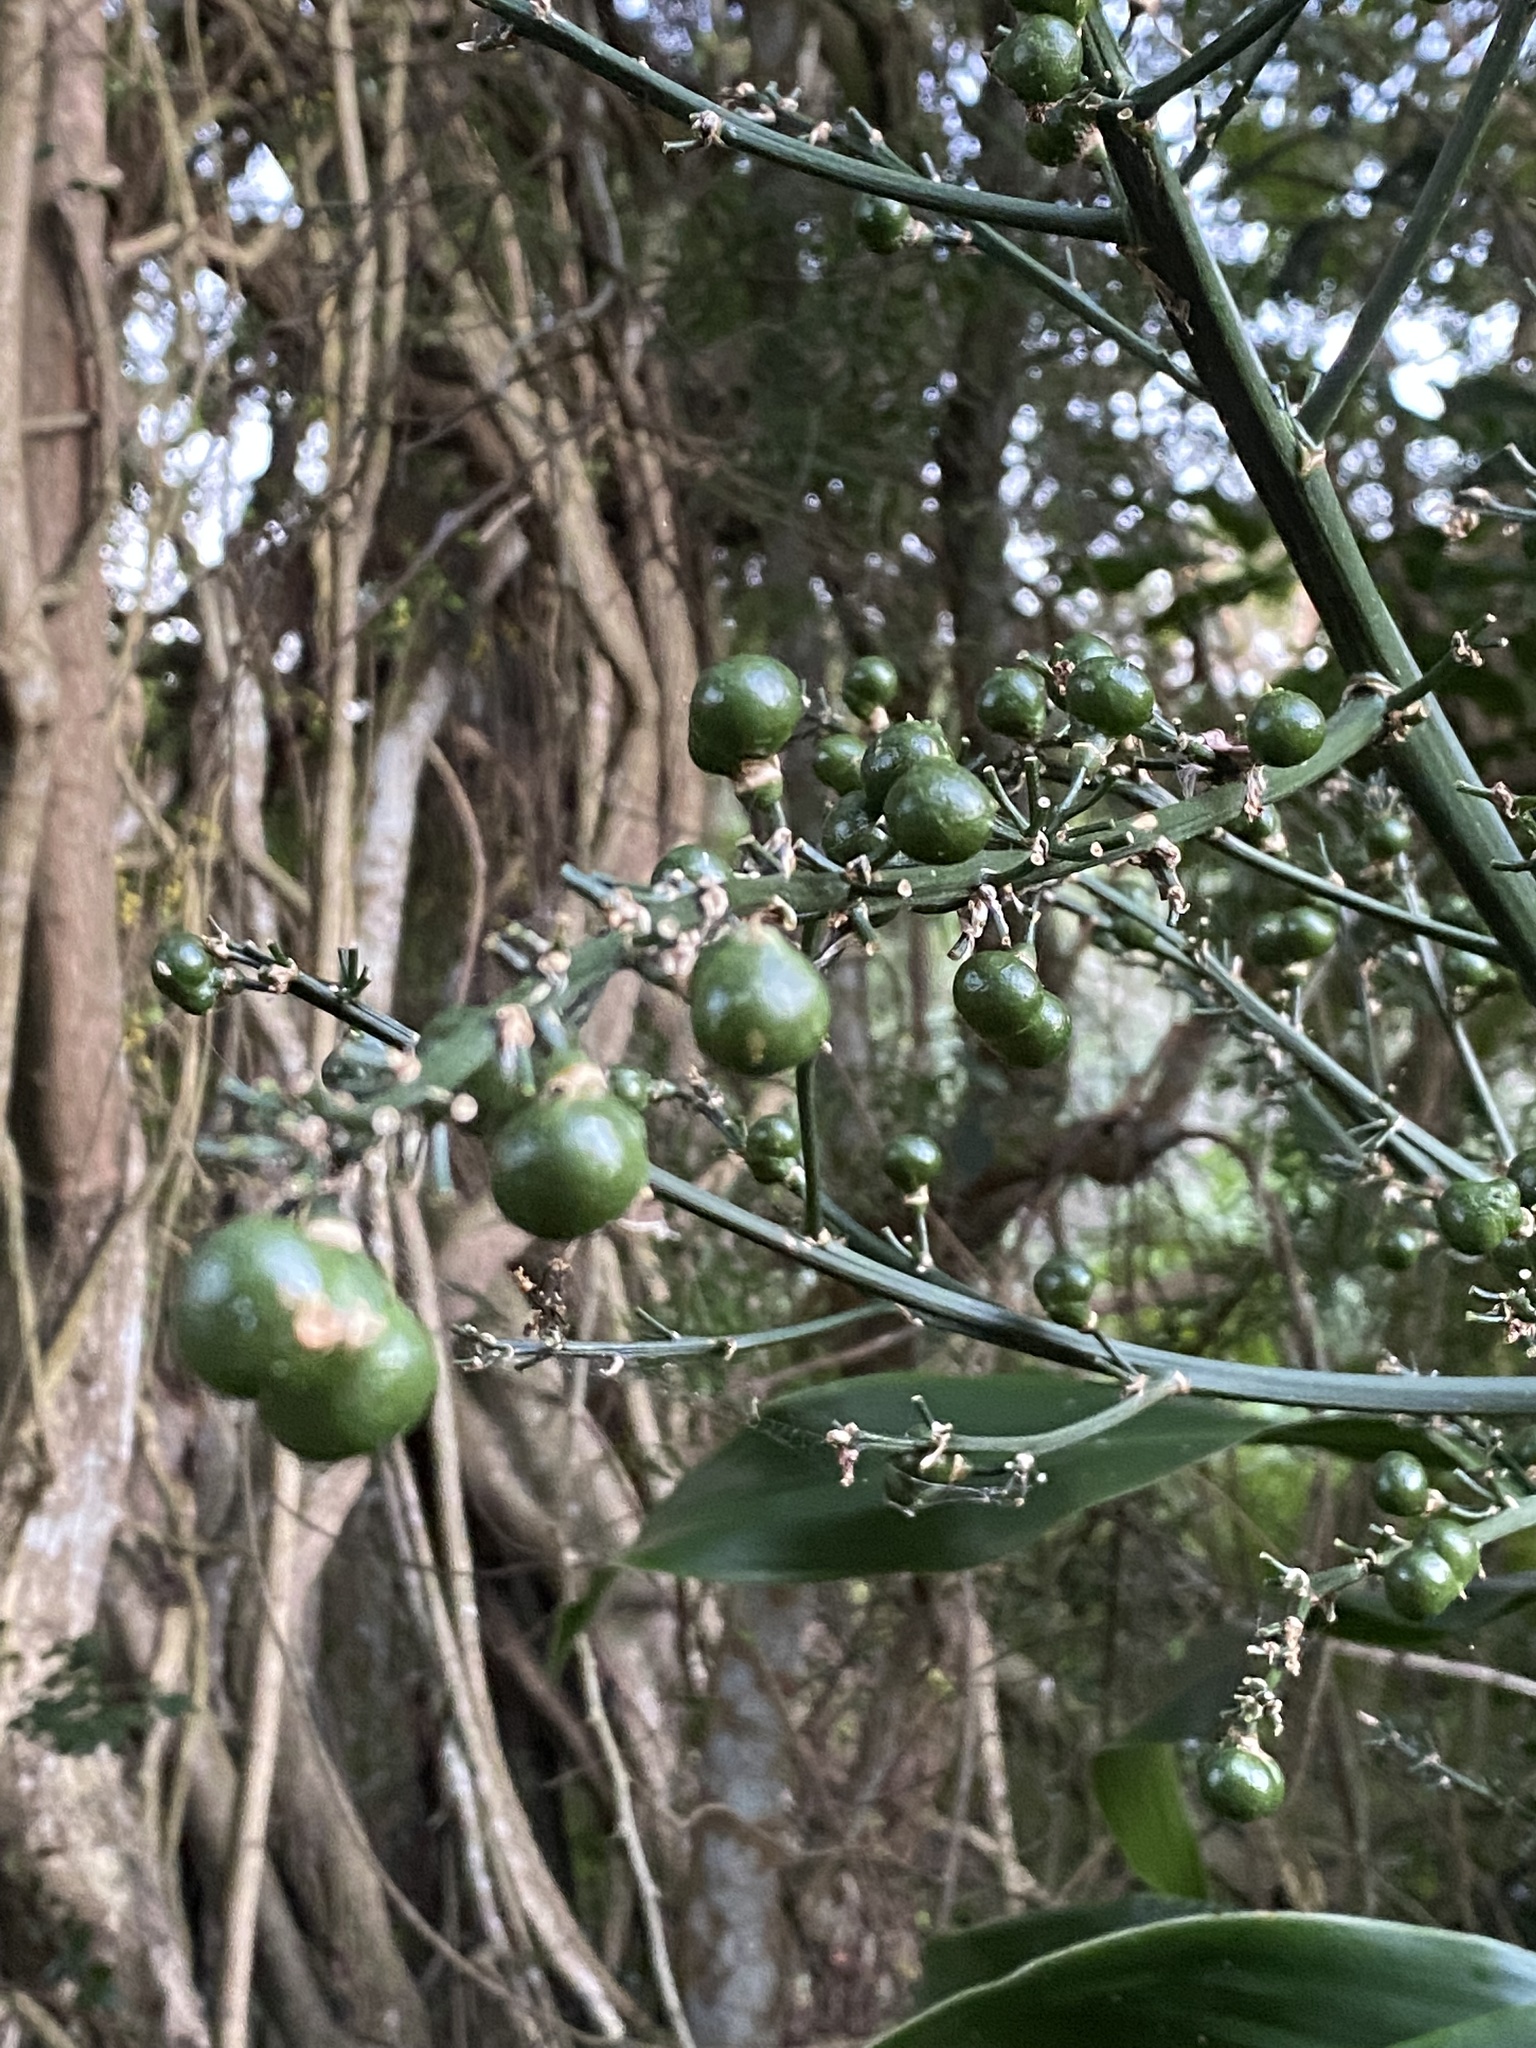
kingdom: Plantae
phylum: Tracheophyta
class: Liliopsida
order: Asparagales
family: Asparagaceae
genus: Dracaena
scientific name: Dracaena aletriformis
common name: Large-leaved dragon tree
